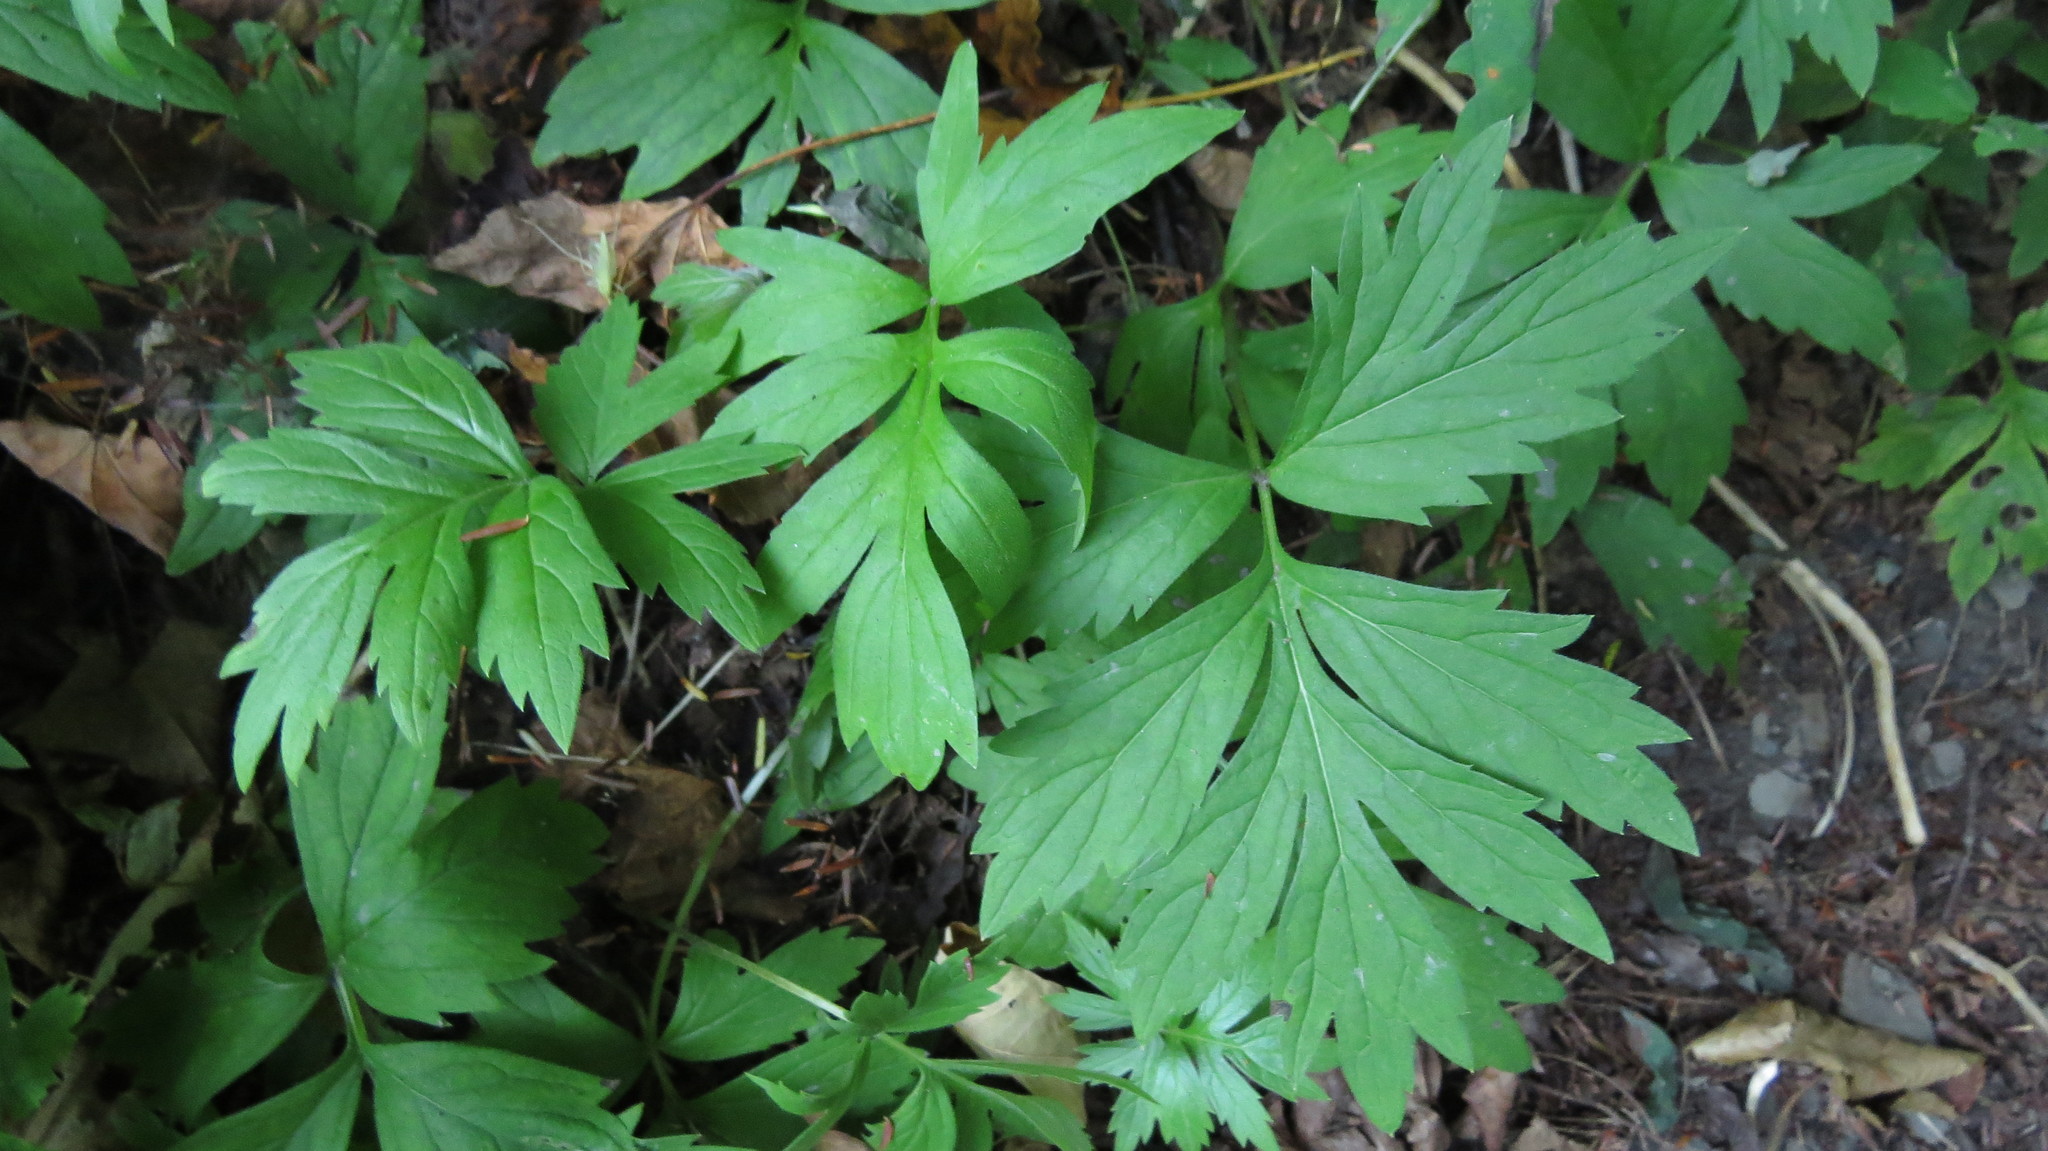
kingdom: Plantae
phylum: Tracheophyta
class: Magnoliopsida
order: Boraginales
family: Hydrophyllaceae
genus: Hydrophyllum
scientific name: Hydrophyllum virginianum
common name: Virginia waterleaf
